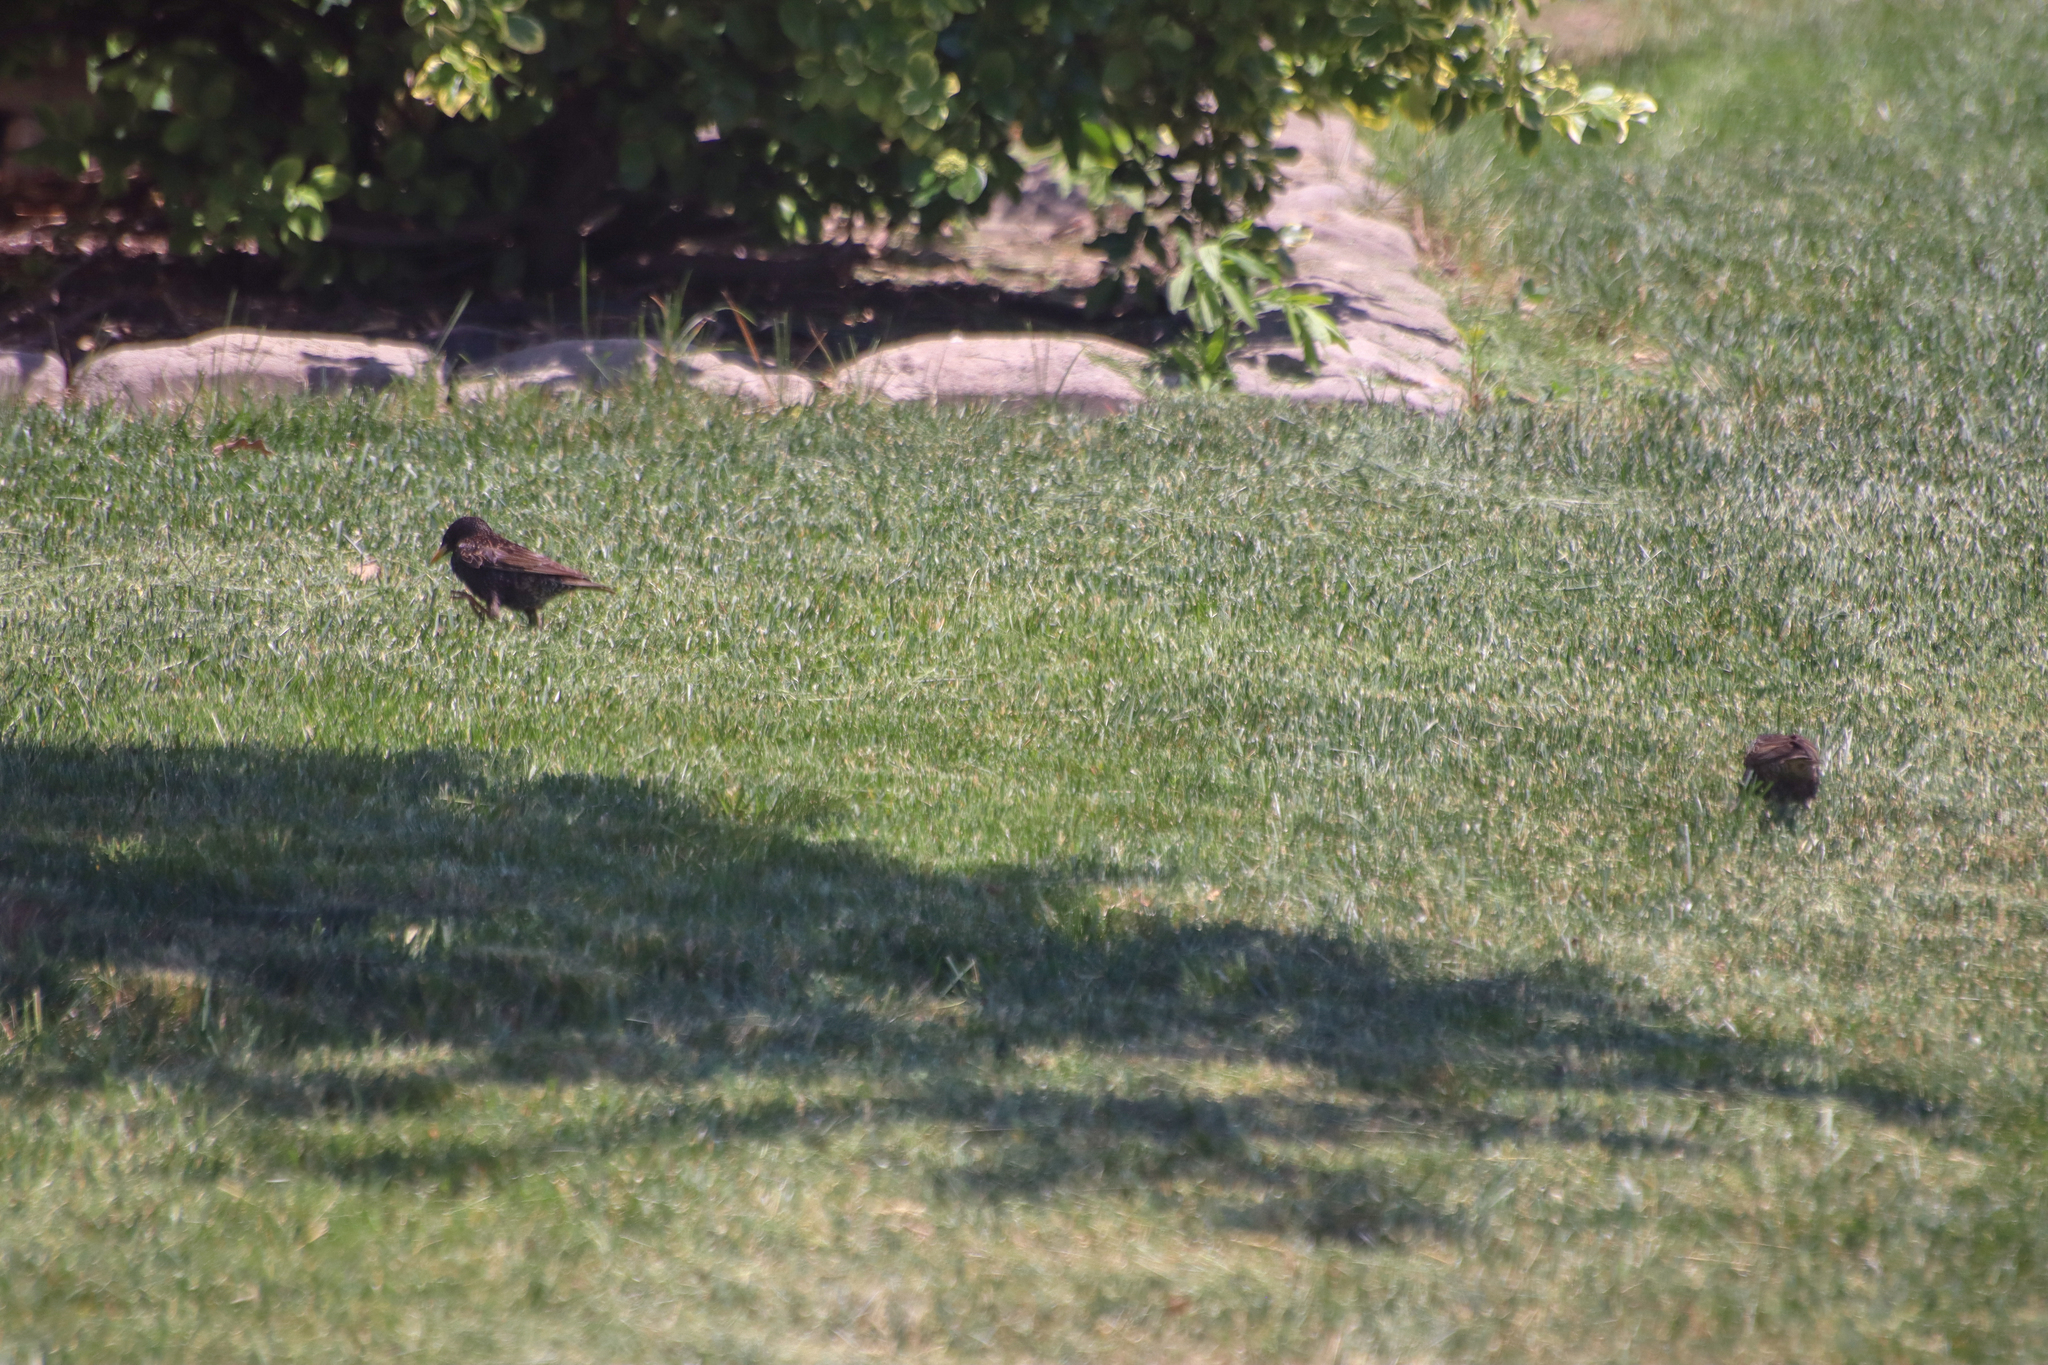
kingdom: Animalia
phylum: Chordata
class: Aves
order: Passeriformes
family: Sturnidae
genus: Sturnus
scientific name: Sturnus vulgaris
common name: Common starling
